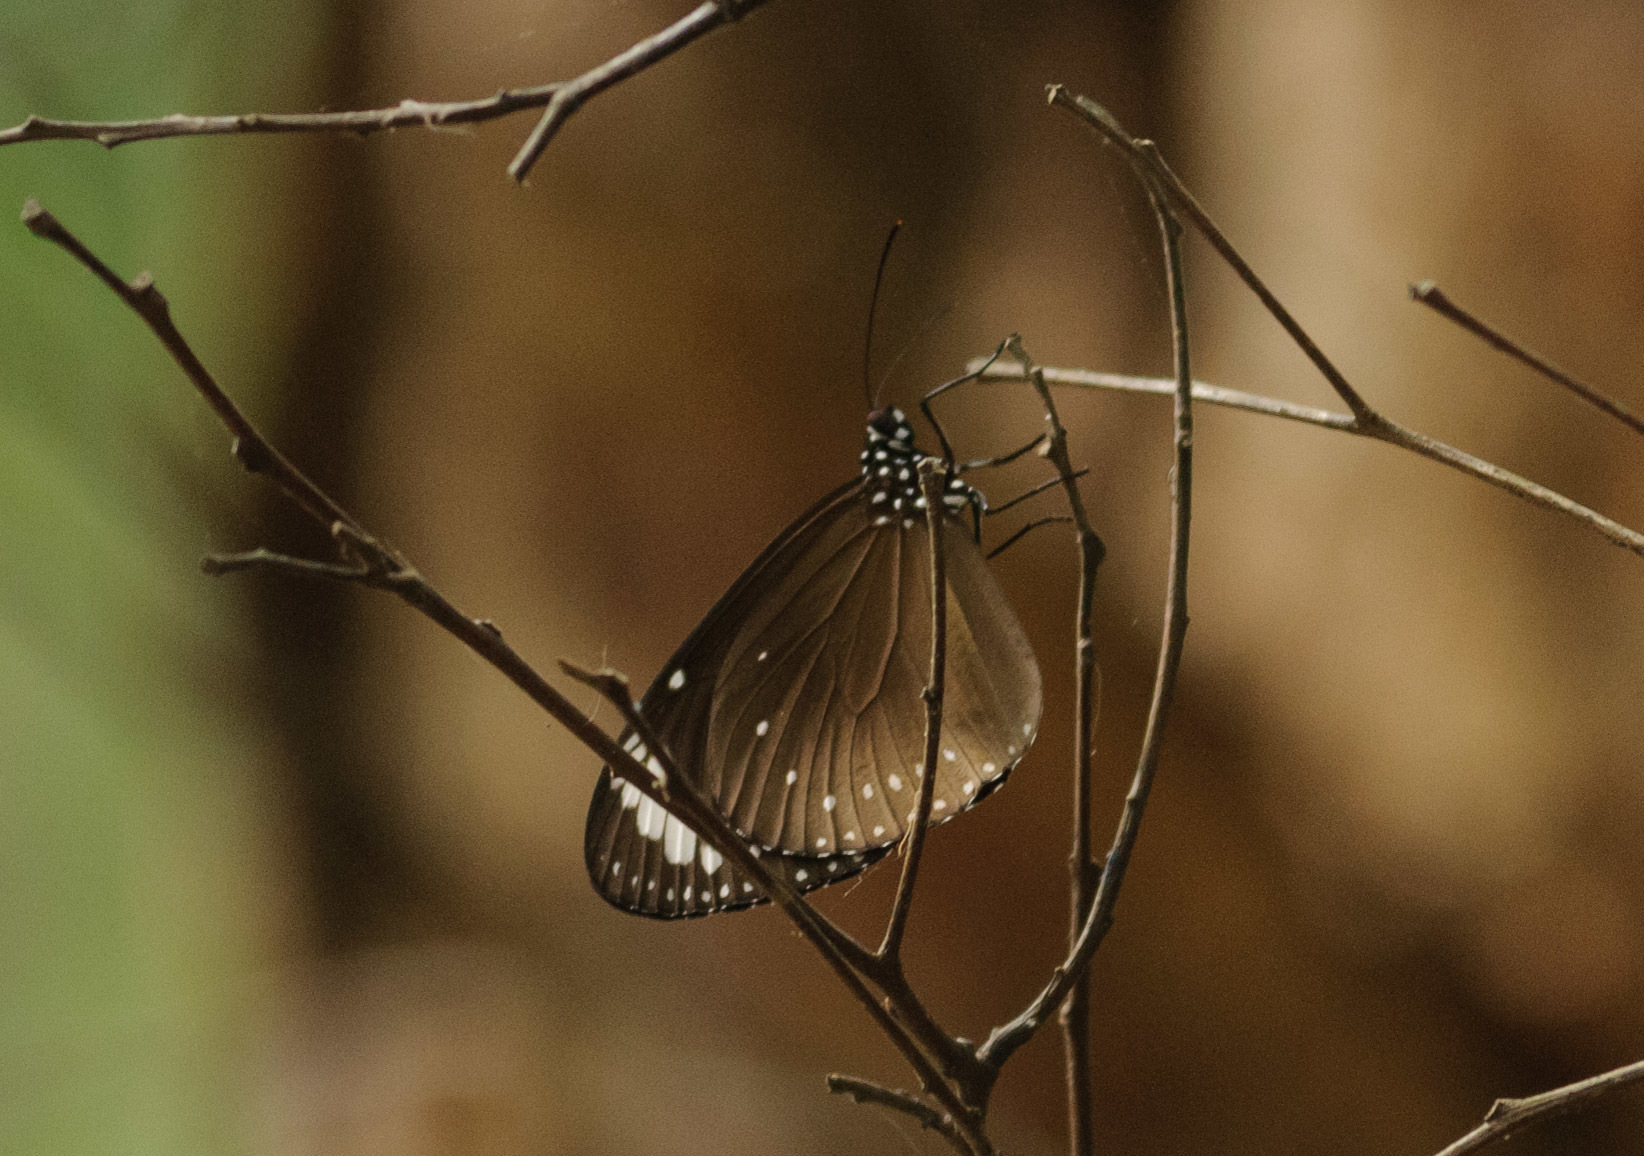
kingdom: Animalia
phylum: Arthropoda
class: Insecta
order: Lepidoptera
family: Nymphalidae
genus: Euploea
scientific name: Euploea tulliolus
